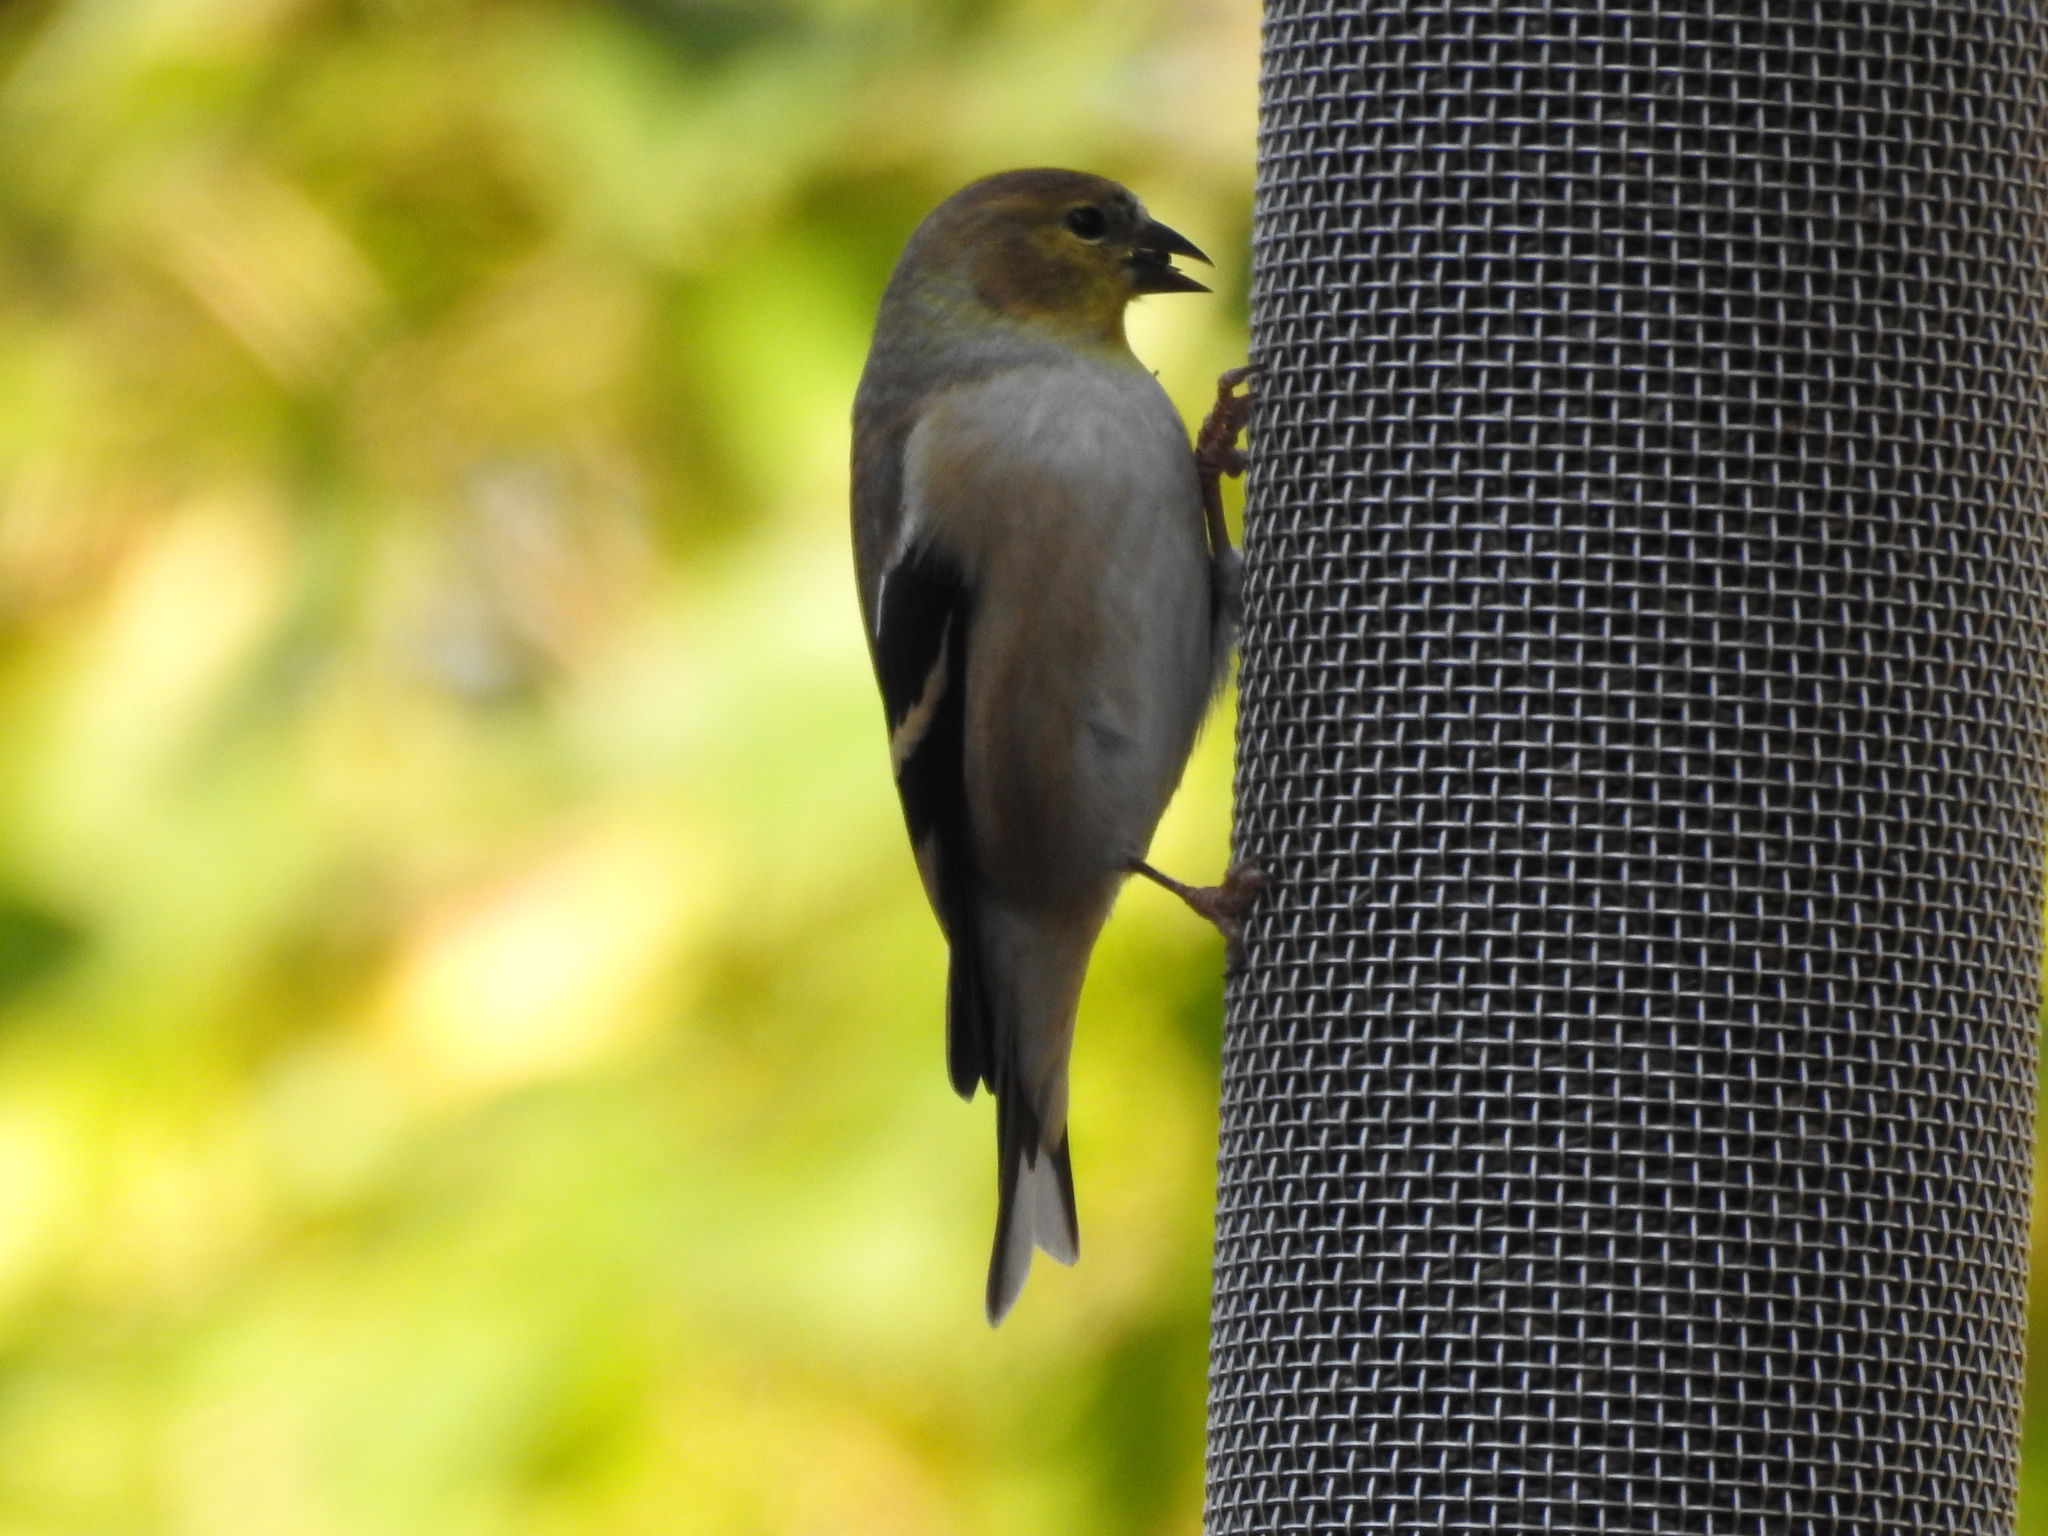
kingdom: Animalia
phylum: Chordata
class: Aves
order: Passeriformes
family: Fringillidae
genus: Spinus
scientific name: Spinus tristis
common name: American goldfinch
